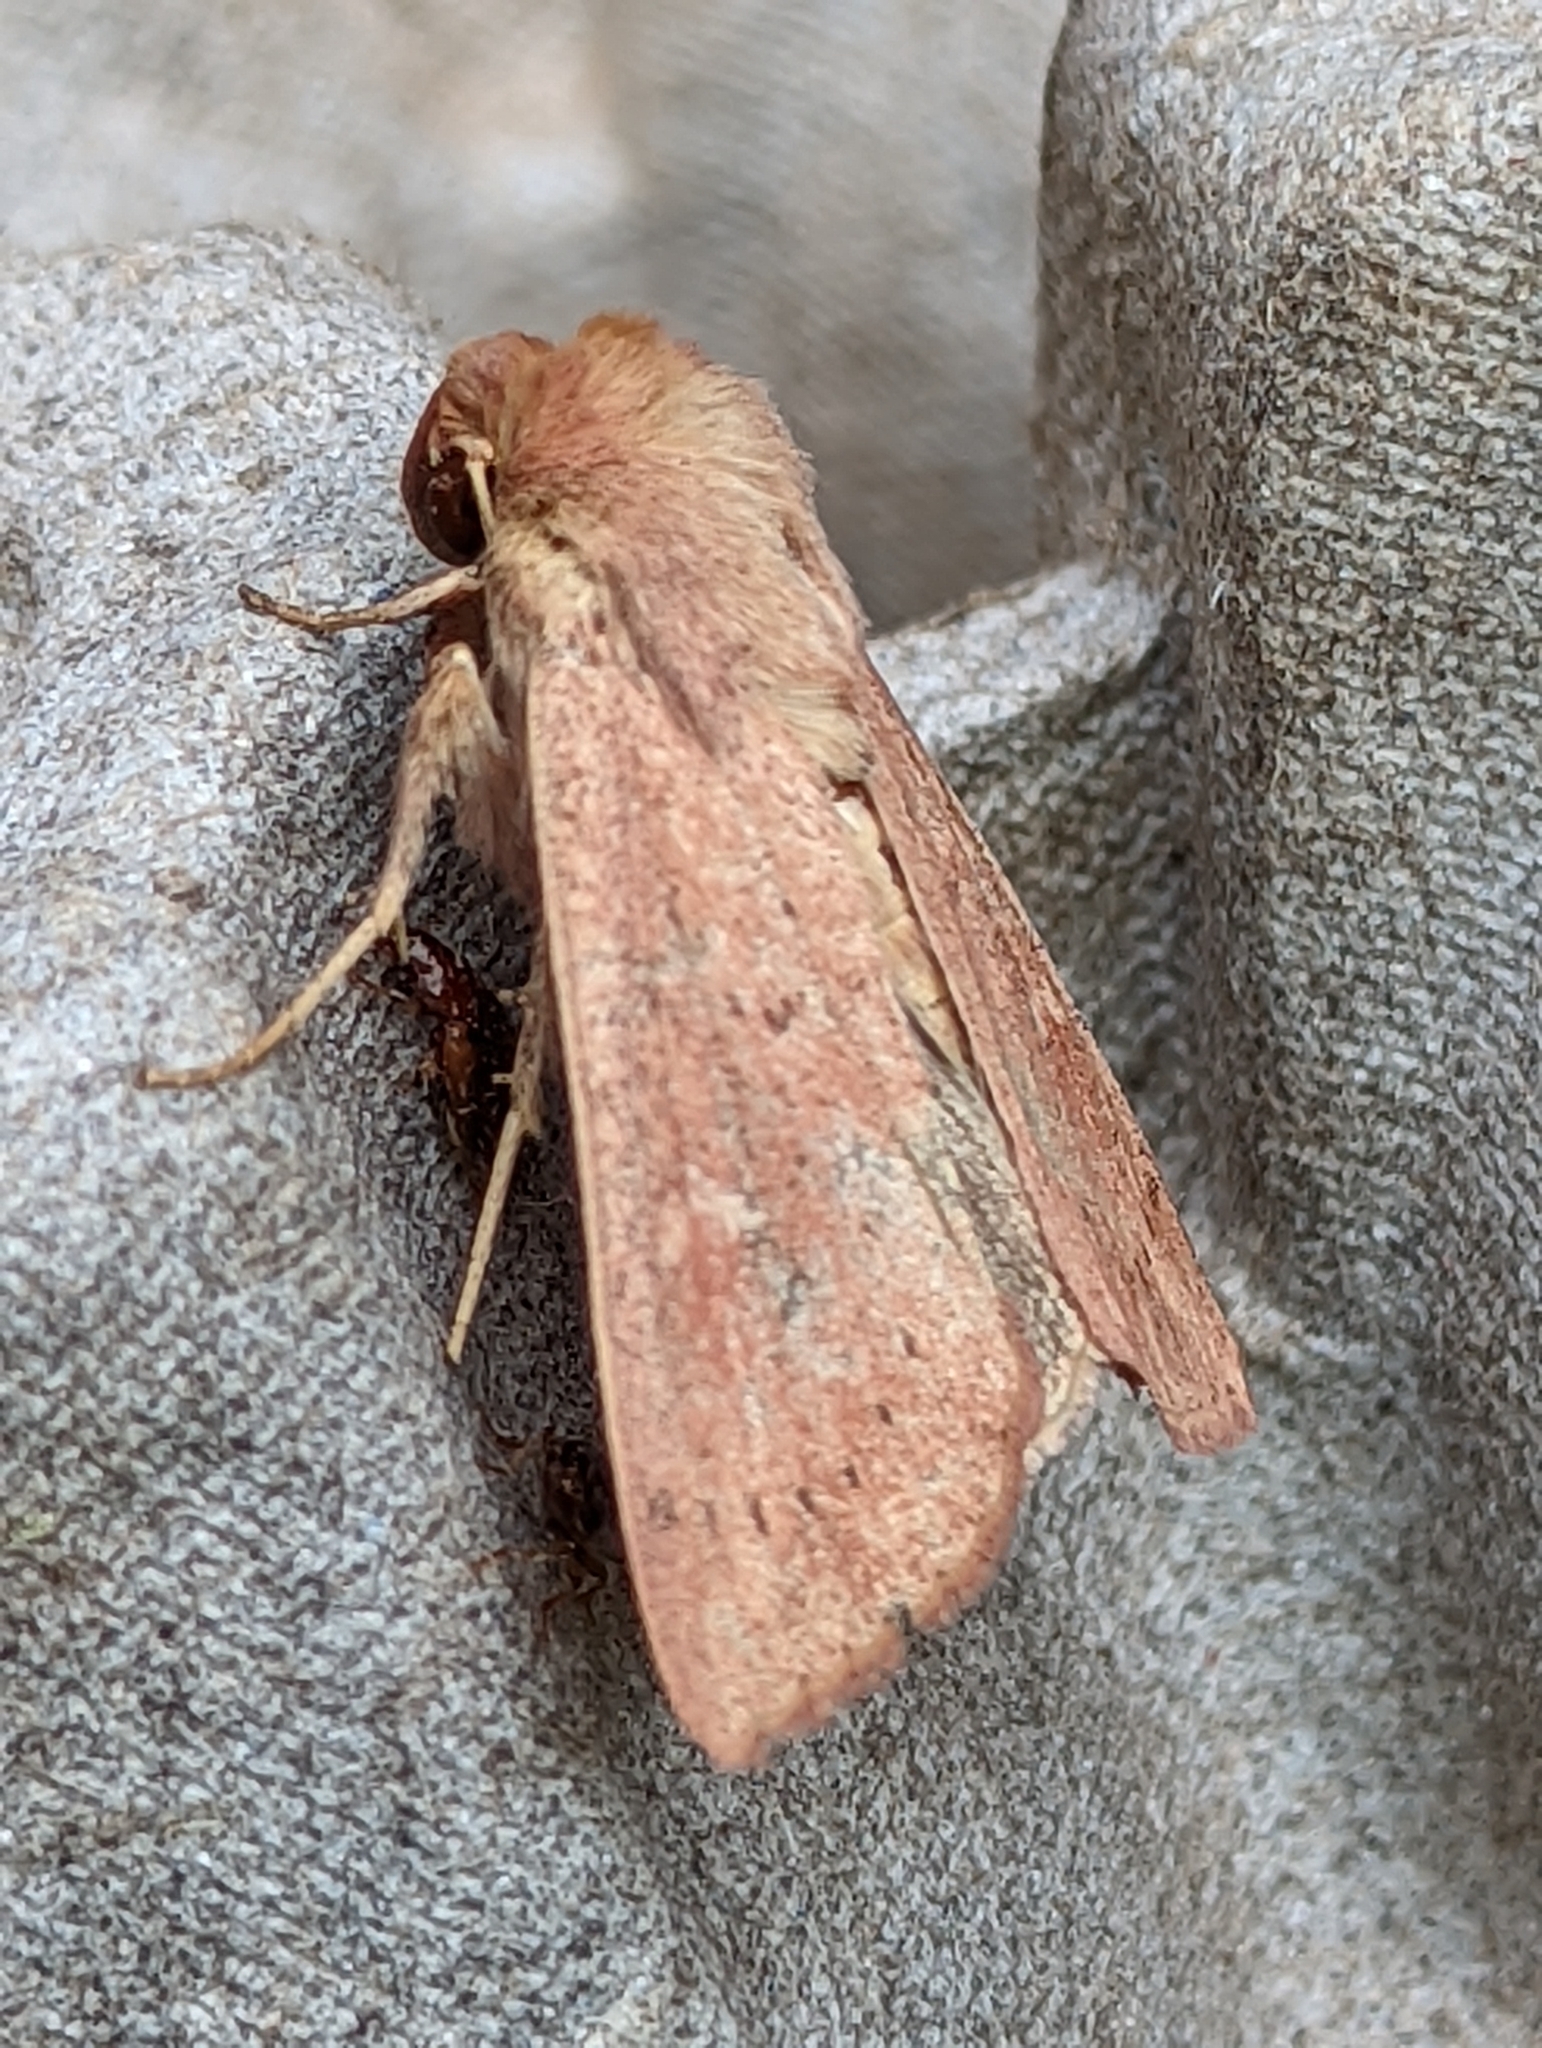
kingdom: Animalia
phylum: Arthropoda
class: Insecta
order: Lepidoptera
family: Noctuidae
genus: Mythimna
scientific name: Mythimna ferrago
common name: Clay
